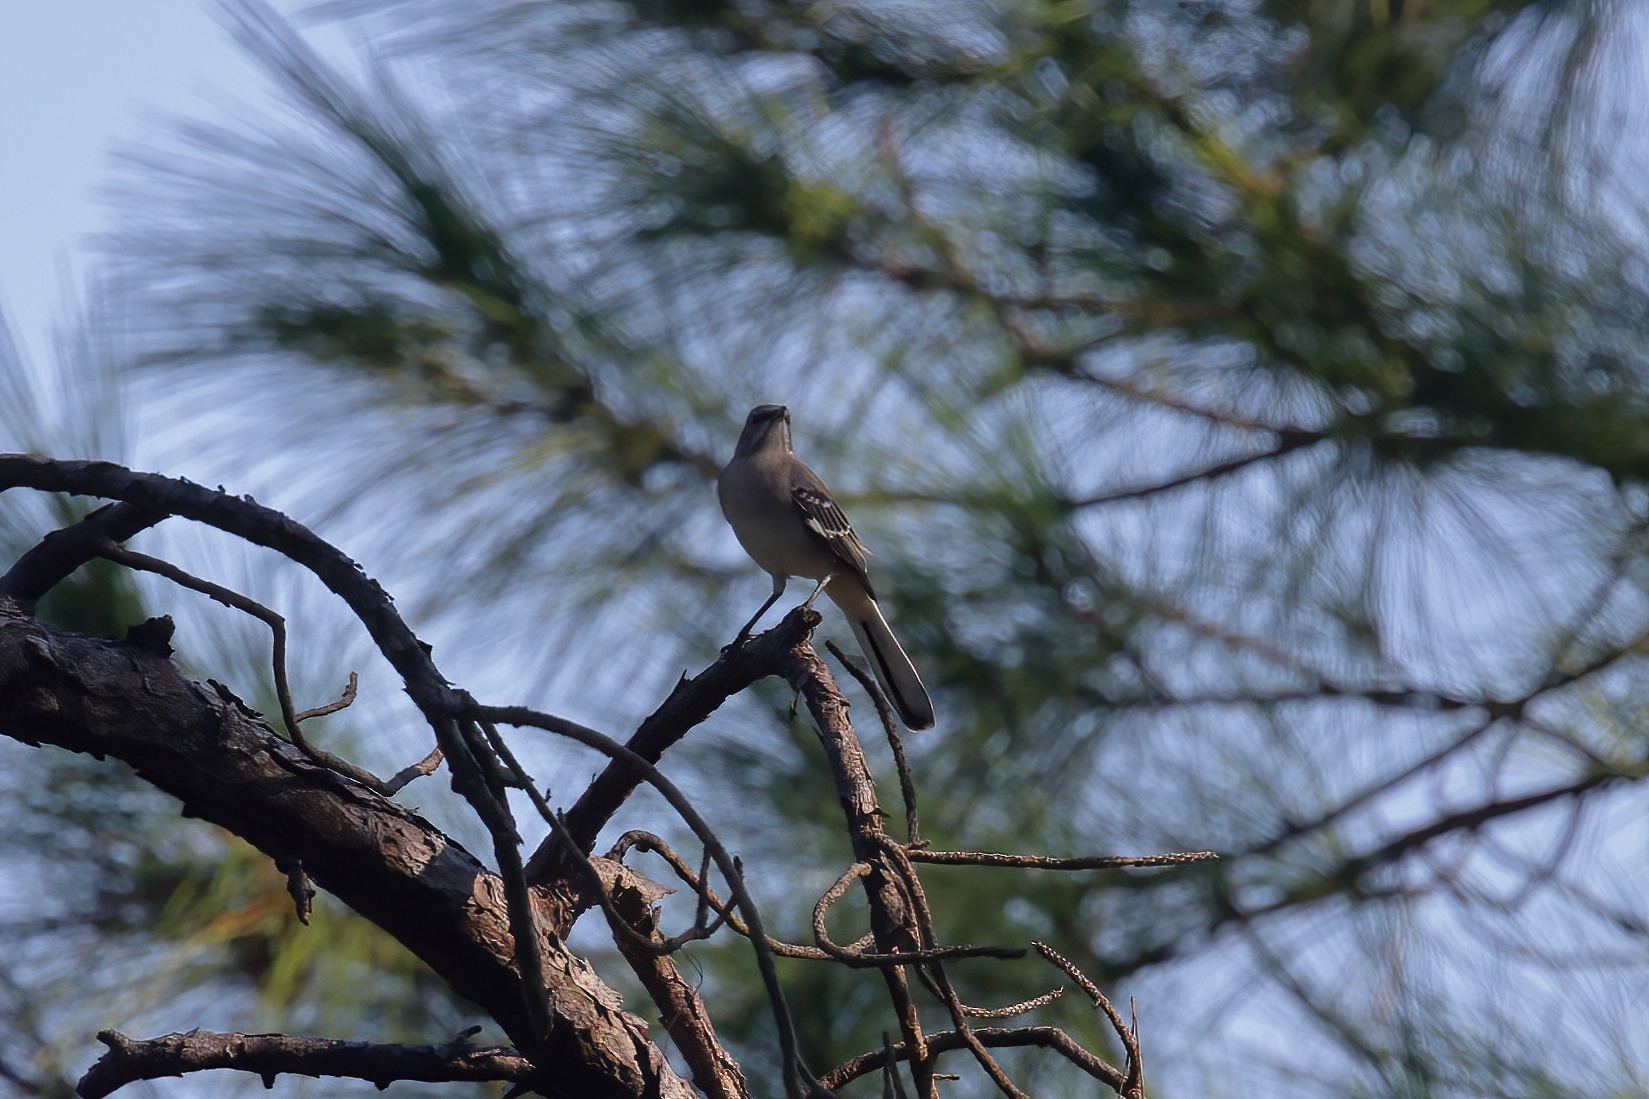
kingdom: Animalia
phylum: Chordata
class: Aves
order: Passeriformes
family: Mimidae
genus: Mimus
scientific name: Mimus polyglottos
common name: Northern mockingbird
